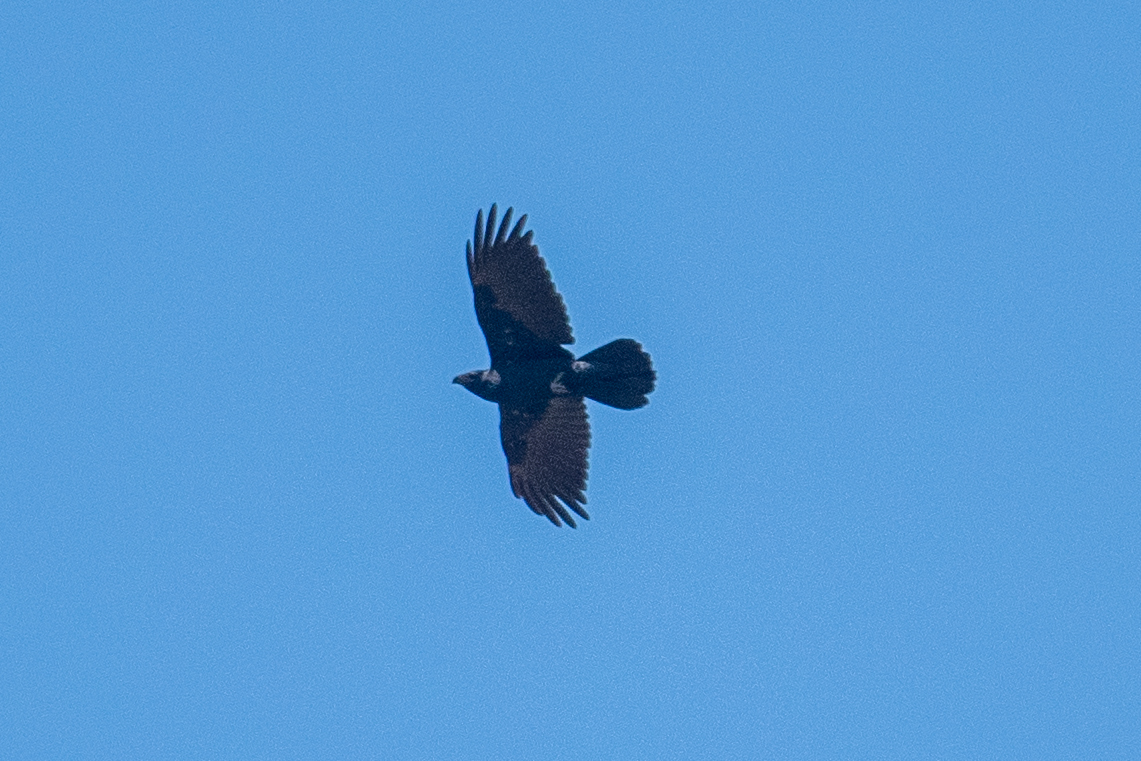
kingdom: Animalia
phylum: Chordata
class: Aves
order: Passeriformes
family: Corvidae
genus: Corvus
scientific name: Corvus corax
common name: Common raven
